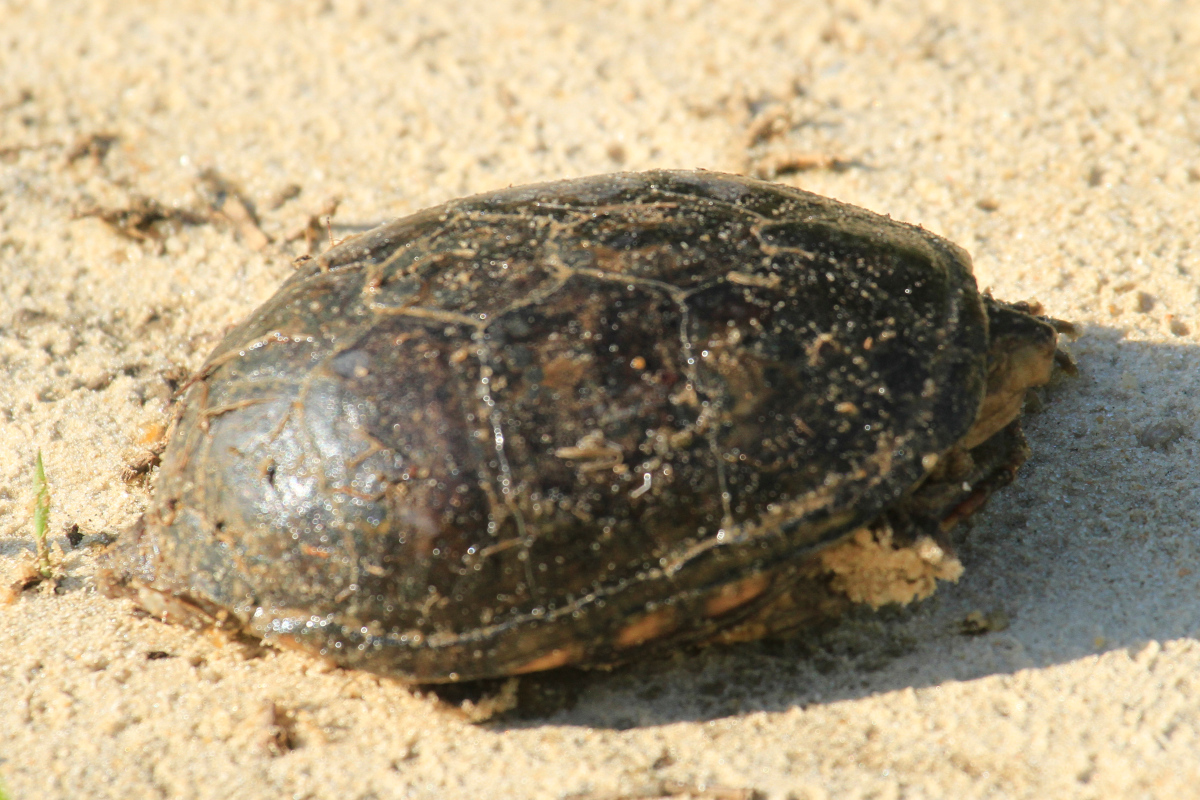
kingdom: Animalia
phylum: Chordata
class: Testudines
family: Kinosternidae
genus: Kinosternon
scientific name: Kinosternon subrubrum
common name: Eastern mud turtle
